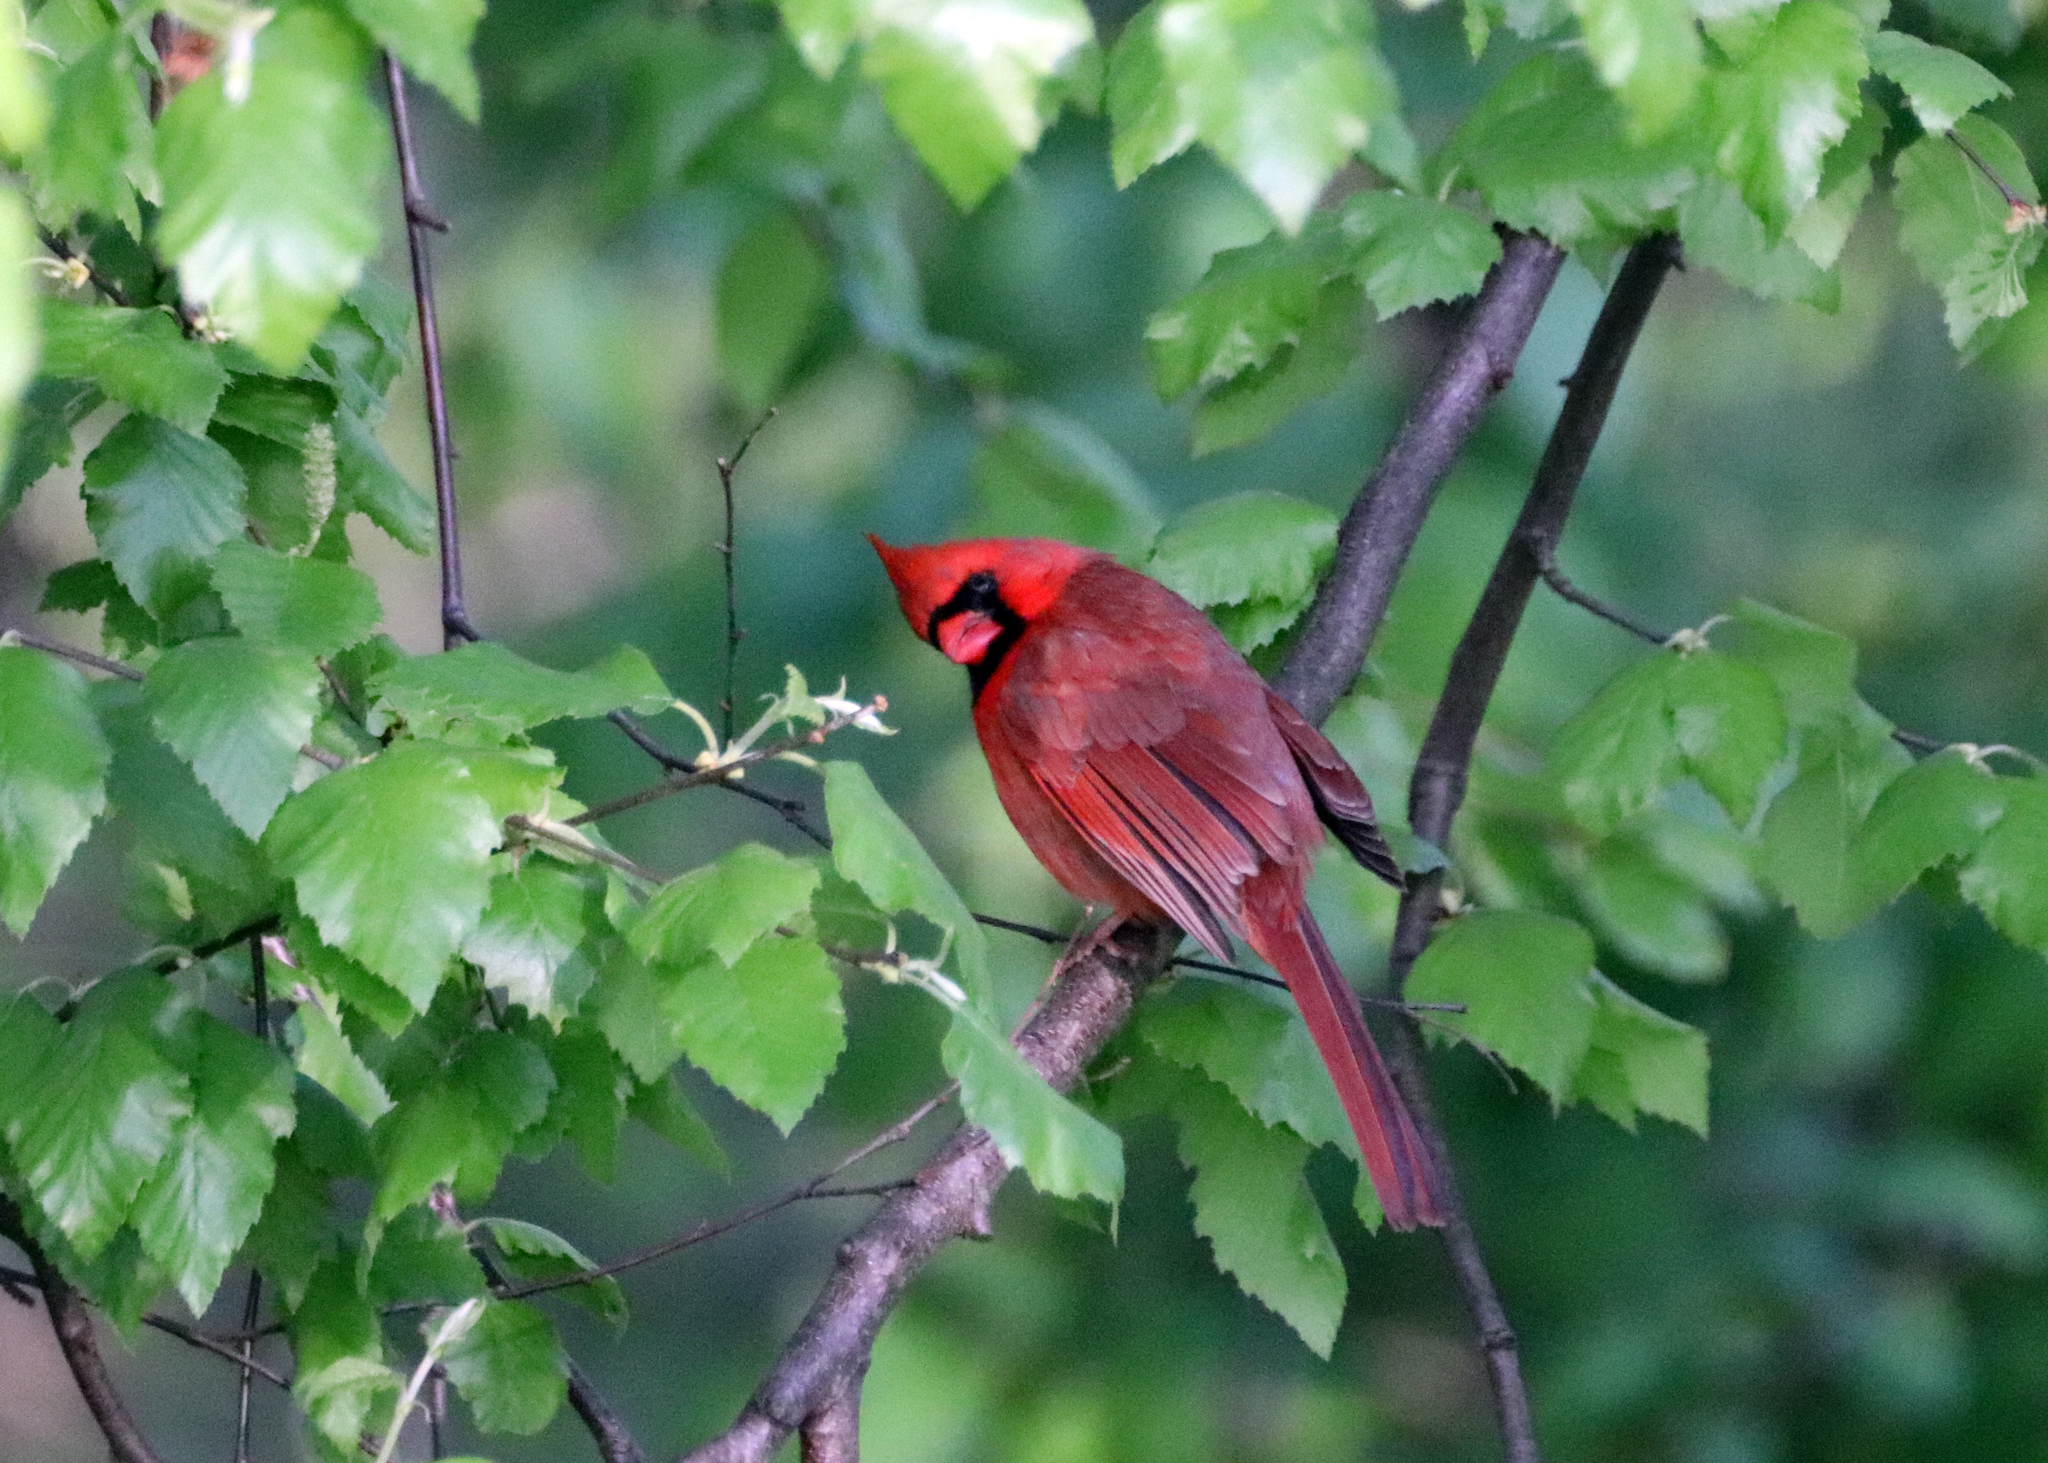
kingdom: Animalia
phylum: Chordata
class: Aves
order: Passeriformes
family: Cardinalidae
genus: Cardinalis
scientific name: Cardinalis cardinalis
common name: Northern cardinal
